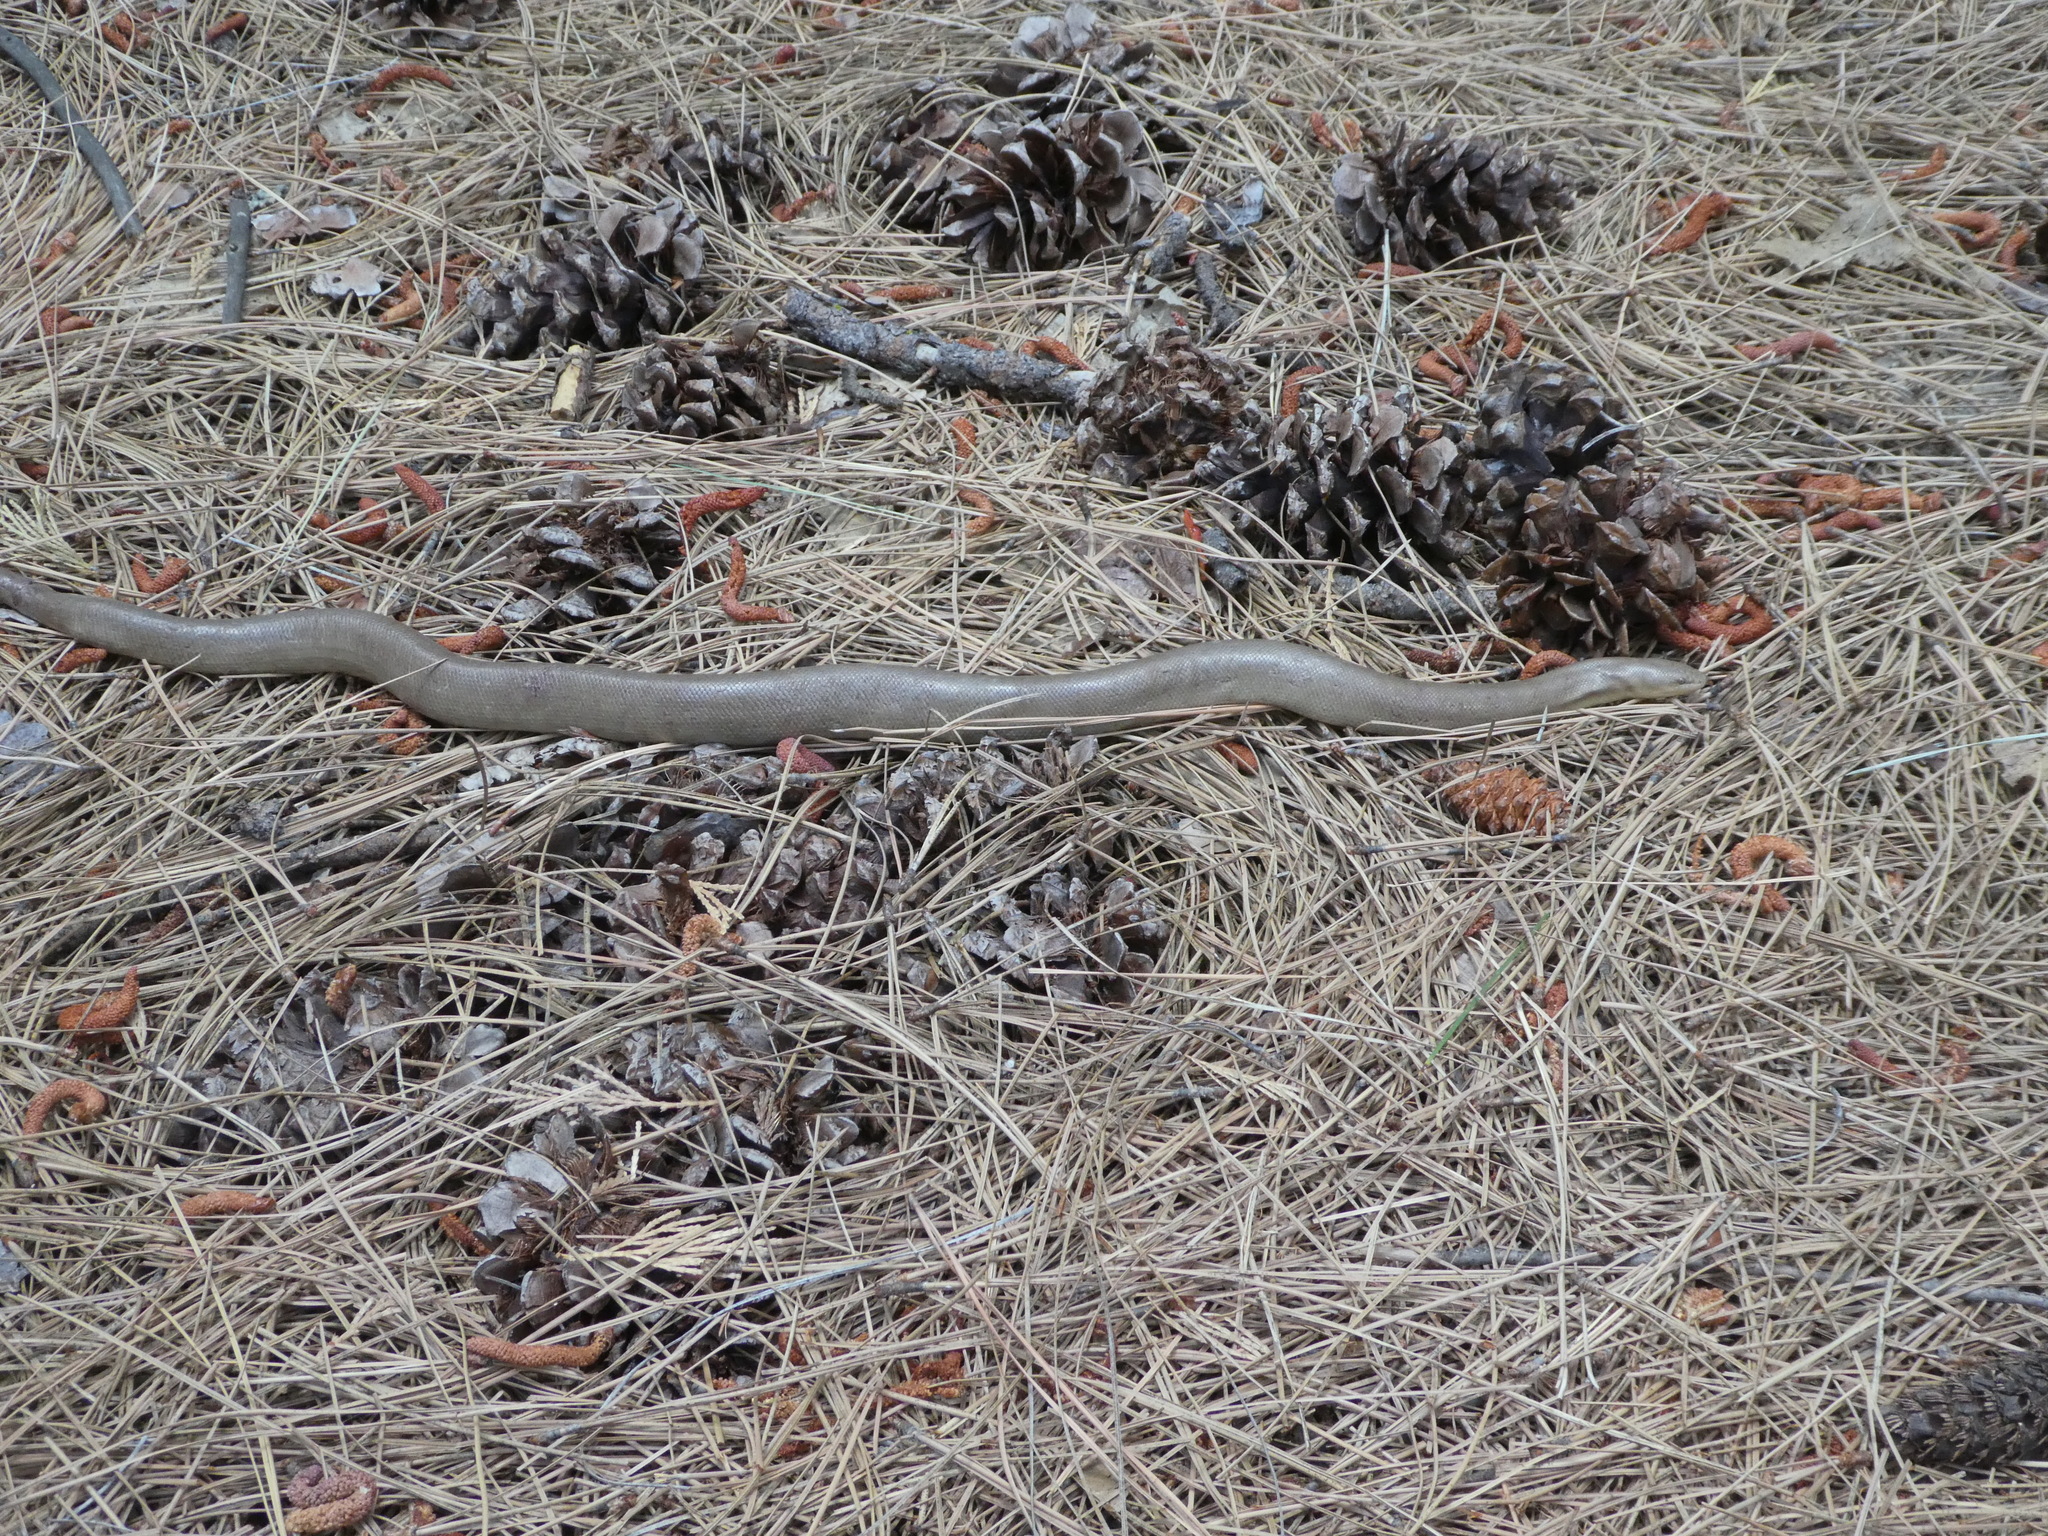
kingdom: Animalia
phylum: Chordata
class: Squamata
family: Boidae
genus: Charina
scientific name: Charina bottae
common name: Northern rubber boa
